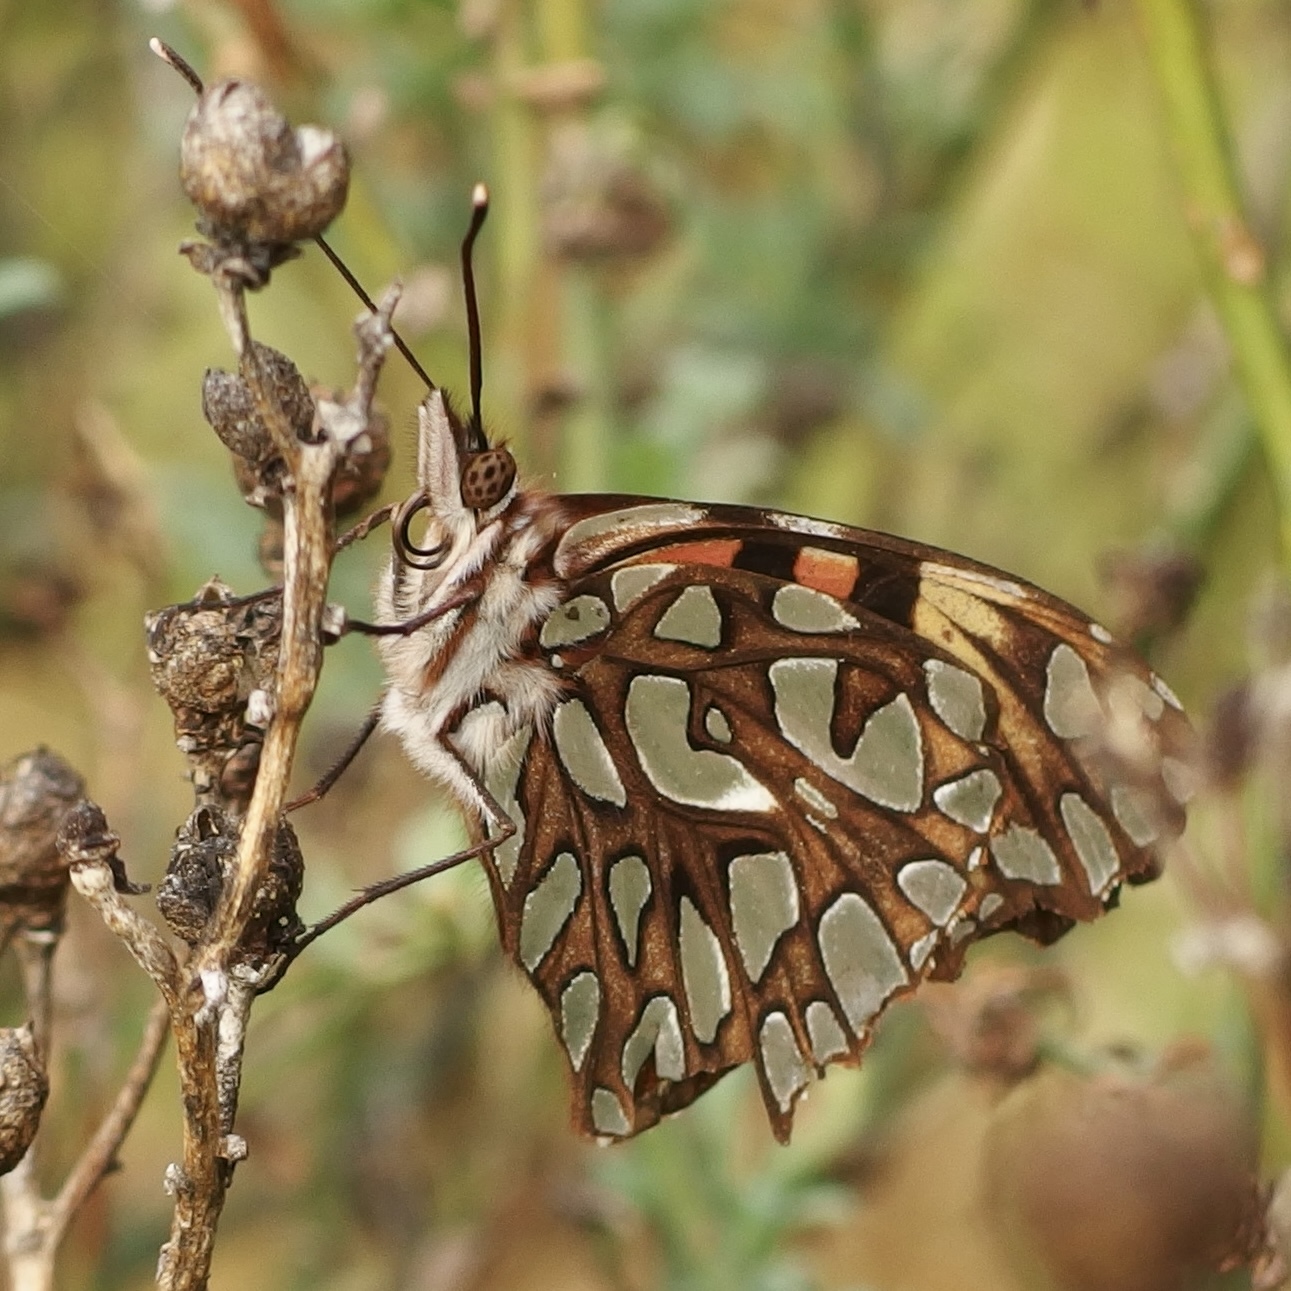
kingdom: Animalia
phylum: Arthropoda
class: Insecta
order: Lepidoptera
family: Nymphalidae
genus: Dione
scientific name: Dione glycera
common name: Andean silverspot
